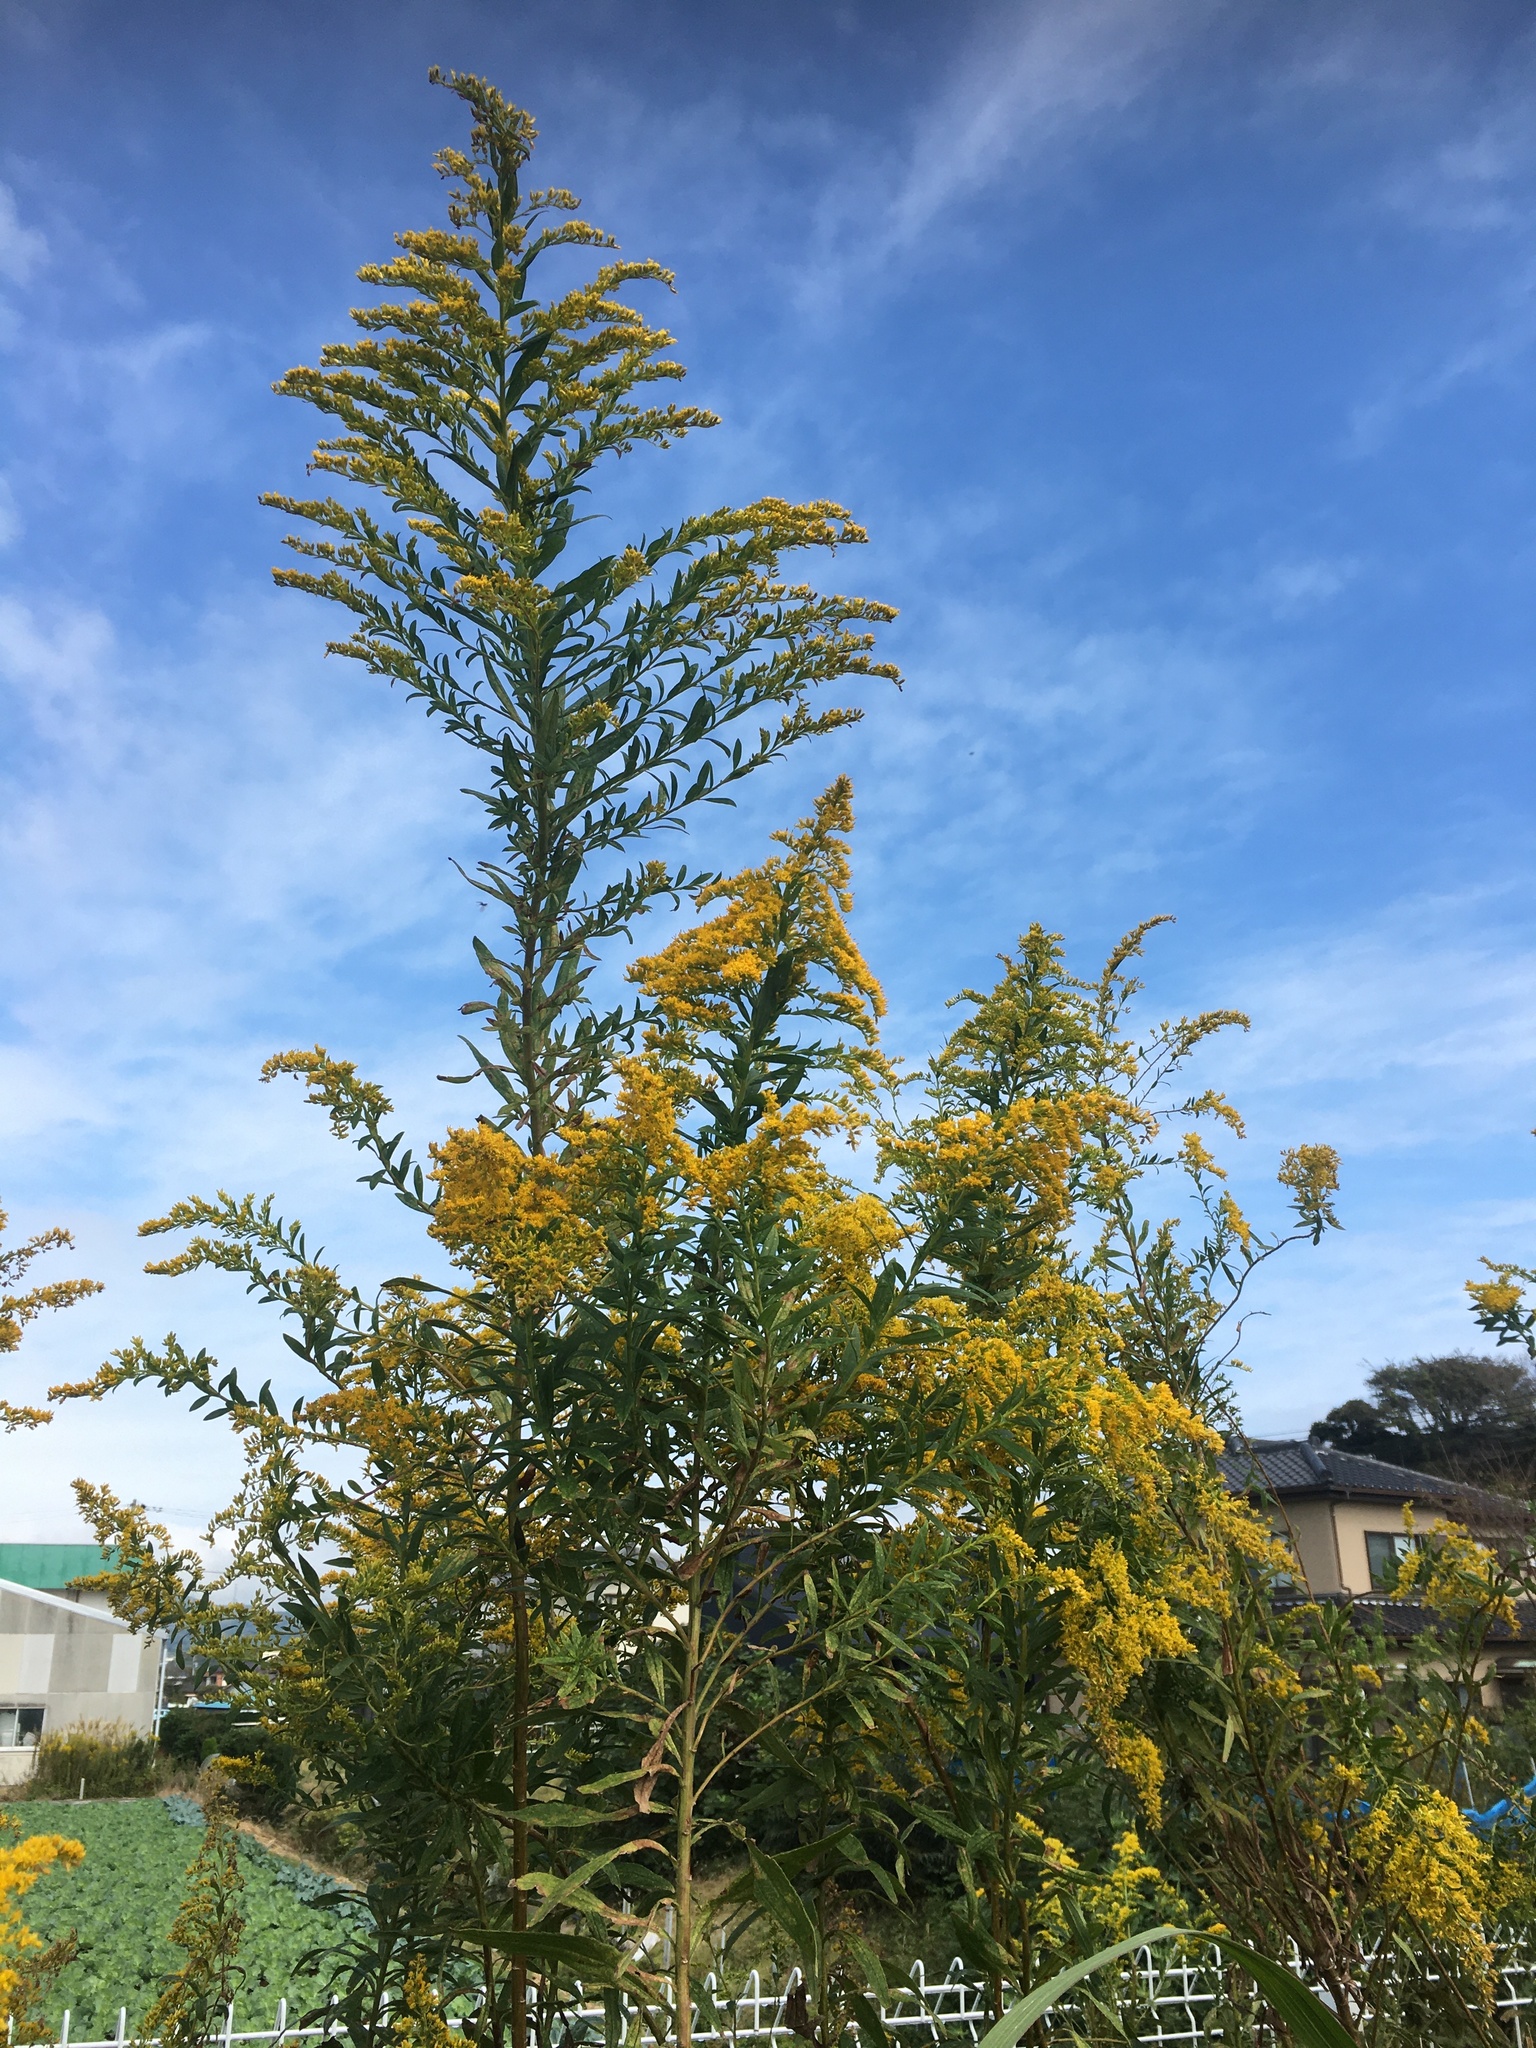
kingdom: Plantae
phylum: Tracheophyta
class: Magnoliopsida
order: Asterales
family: Asteraceae
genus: Solidago
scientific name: Solidago altissima
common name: Late goldenrod
